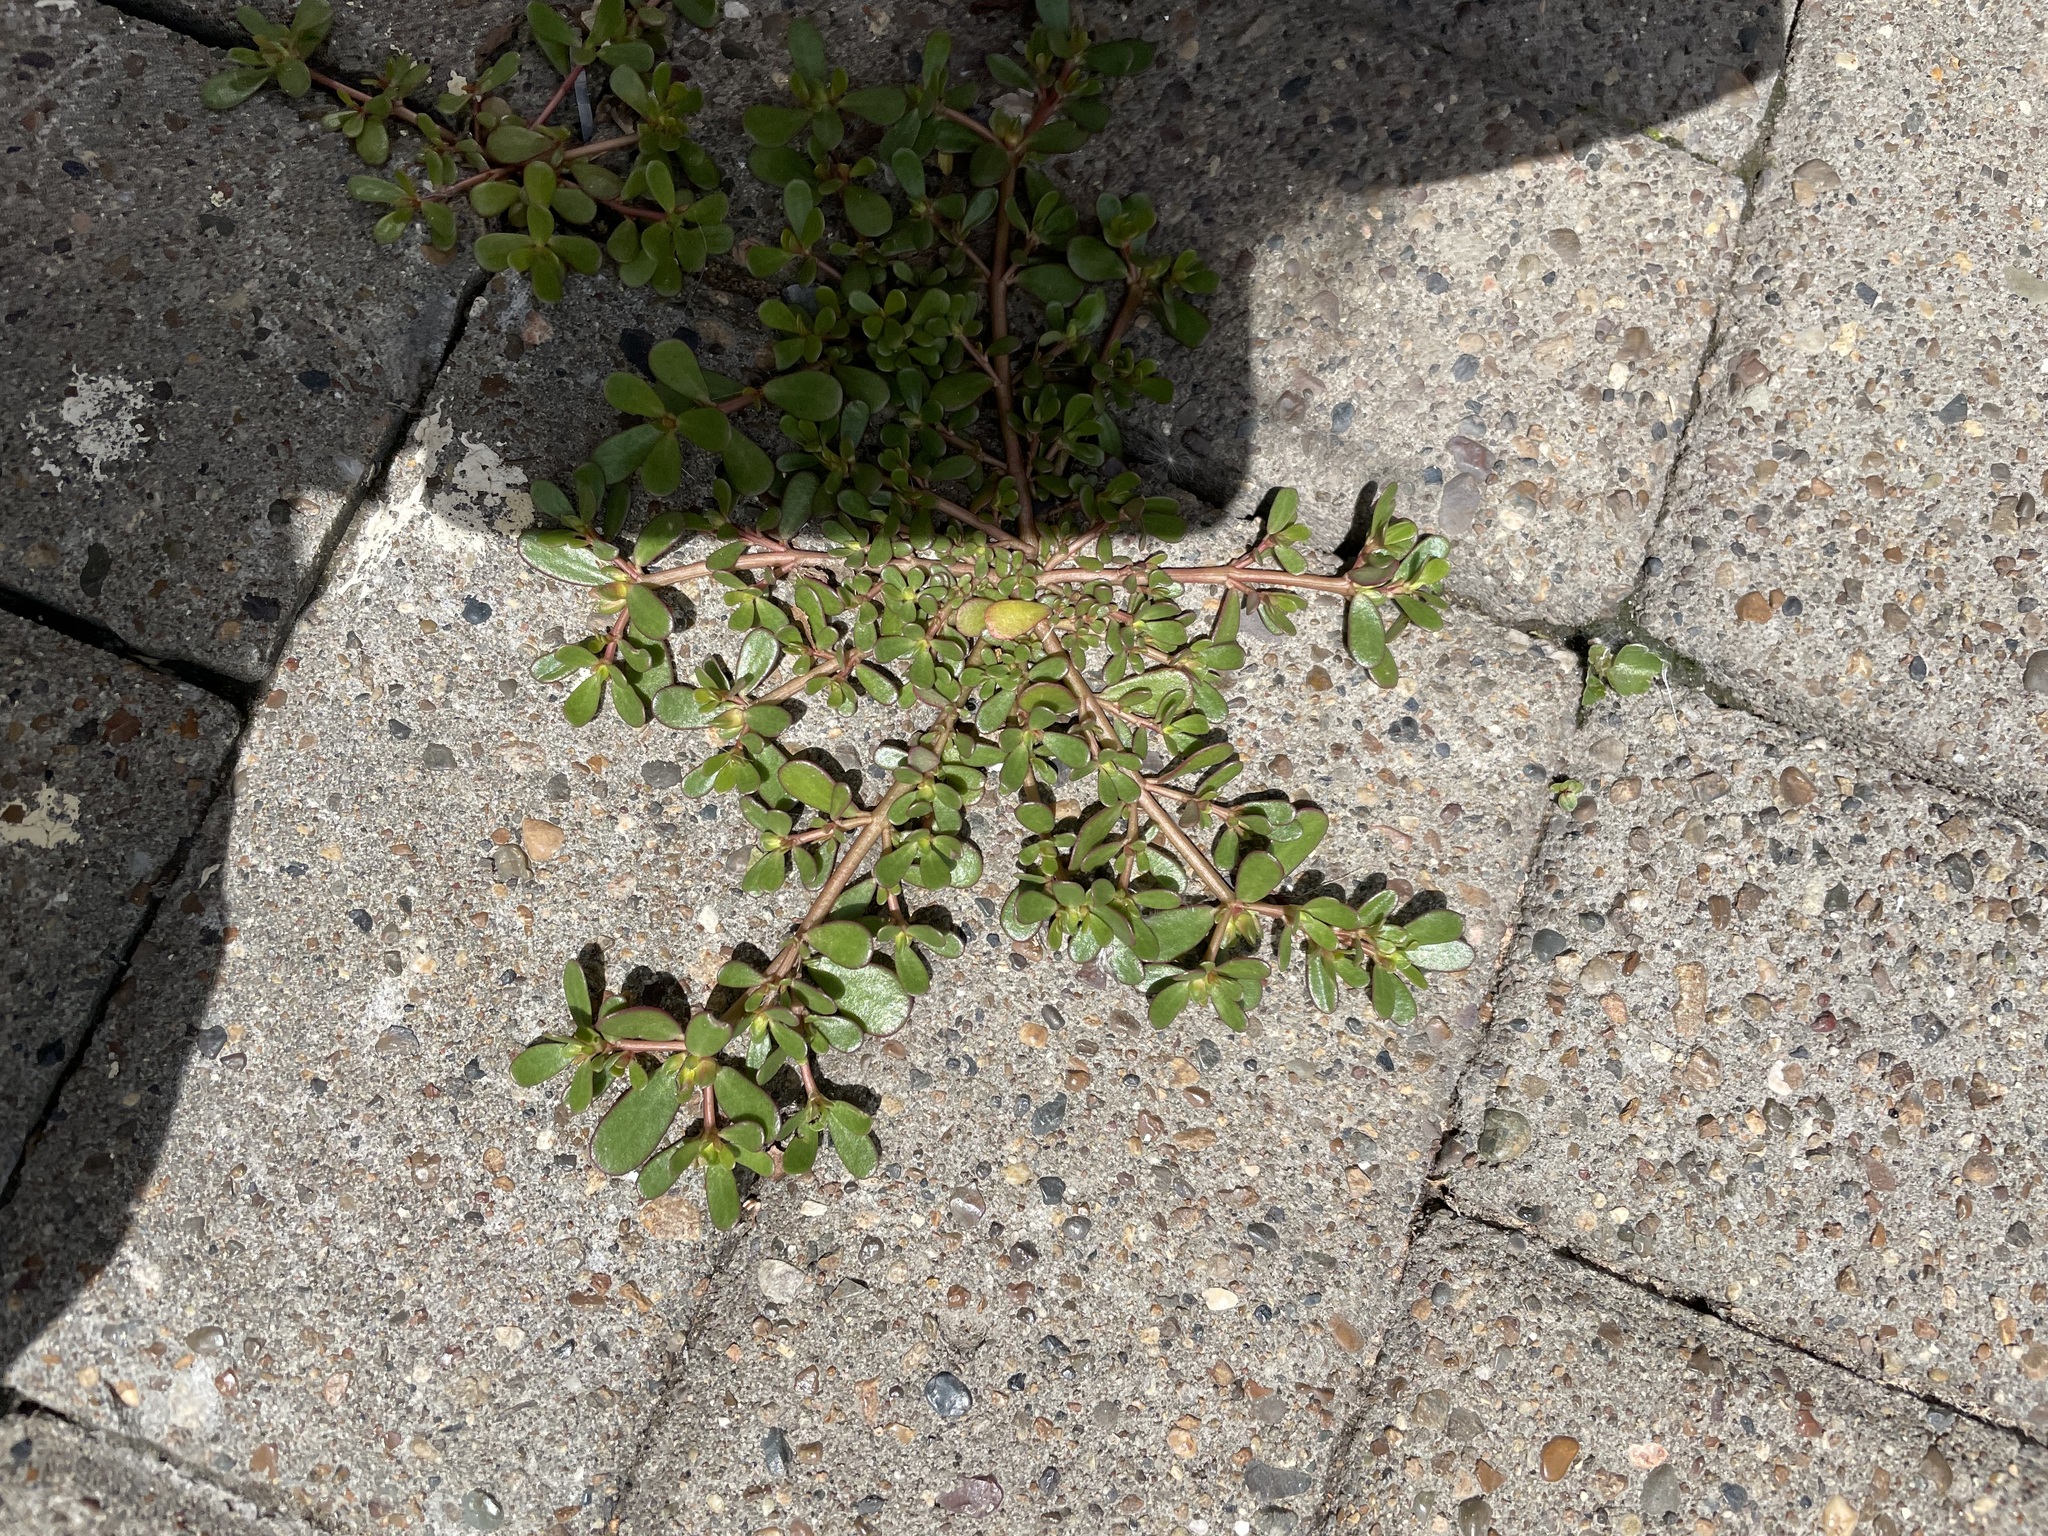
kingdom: Plantae
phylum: Tracheophyta
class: Magnoliopsida
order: Caryophyllales
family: Portulacaceae
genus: Portulaca
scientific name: Portulaca oleracea
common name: Common purslane
